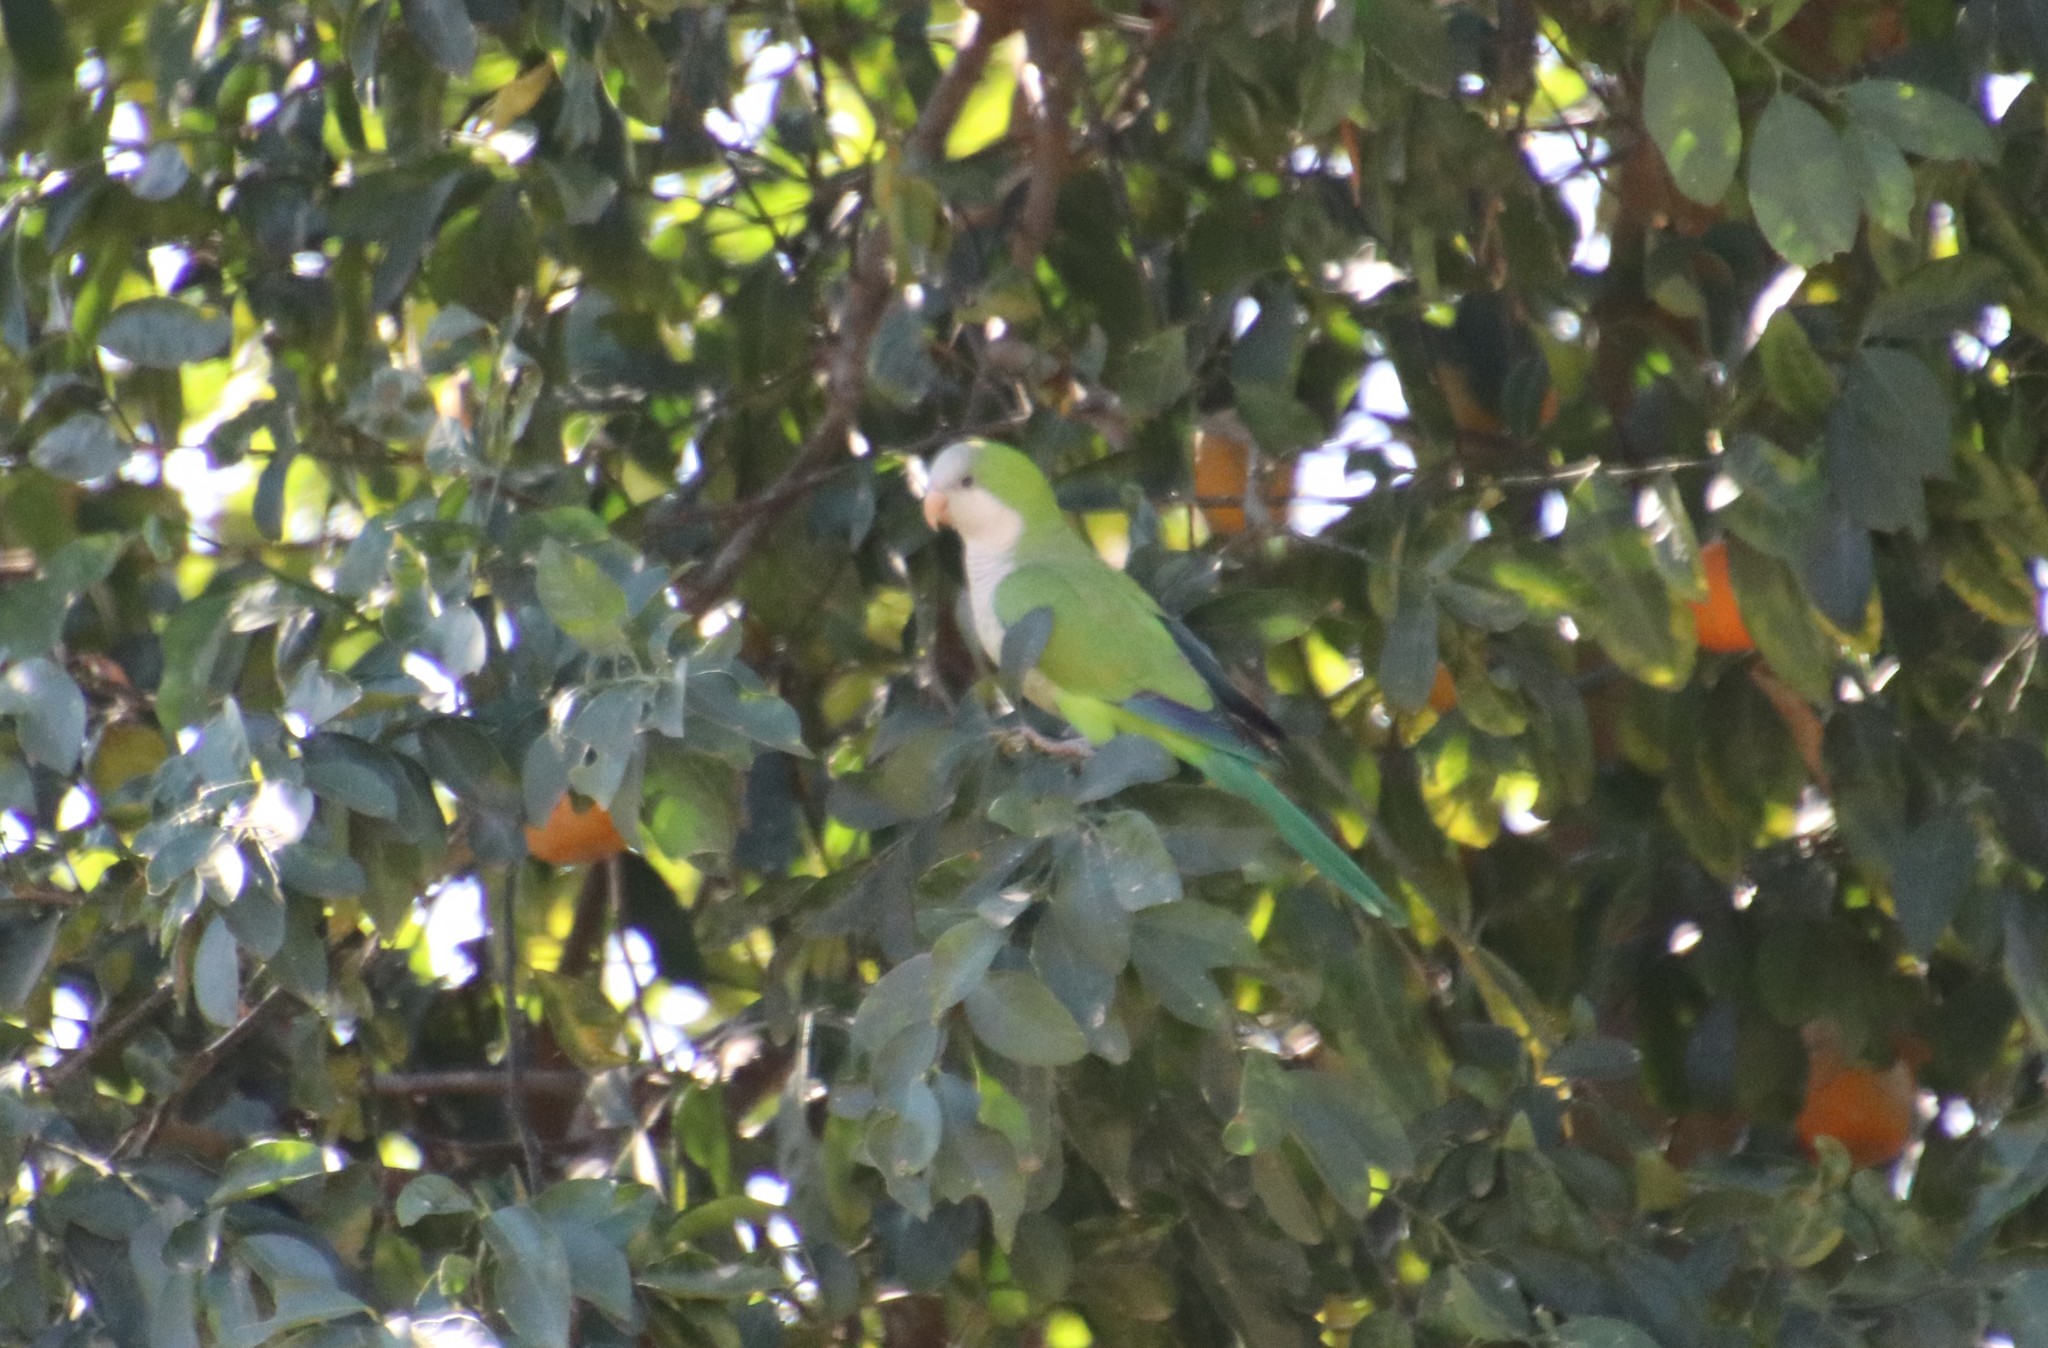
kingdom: Animalia
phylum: Chordata
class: Aves
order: Psittaciformes
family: Psittacidae
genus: Myiopsitta
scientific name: Myiopsitta monachus
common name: Monk parakeet
